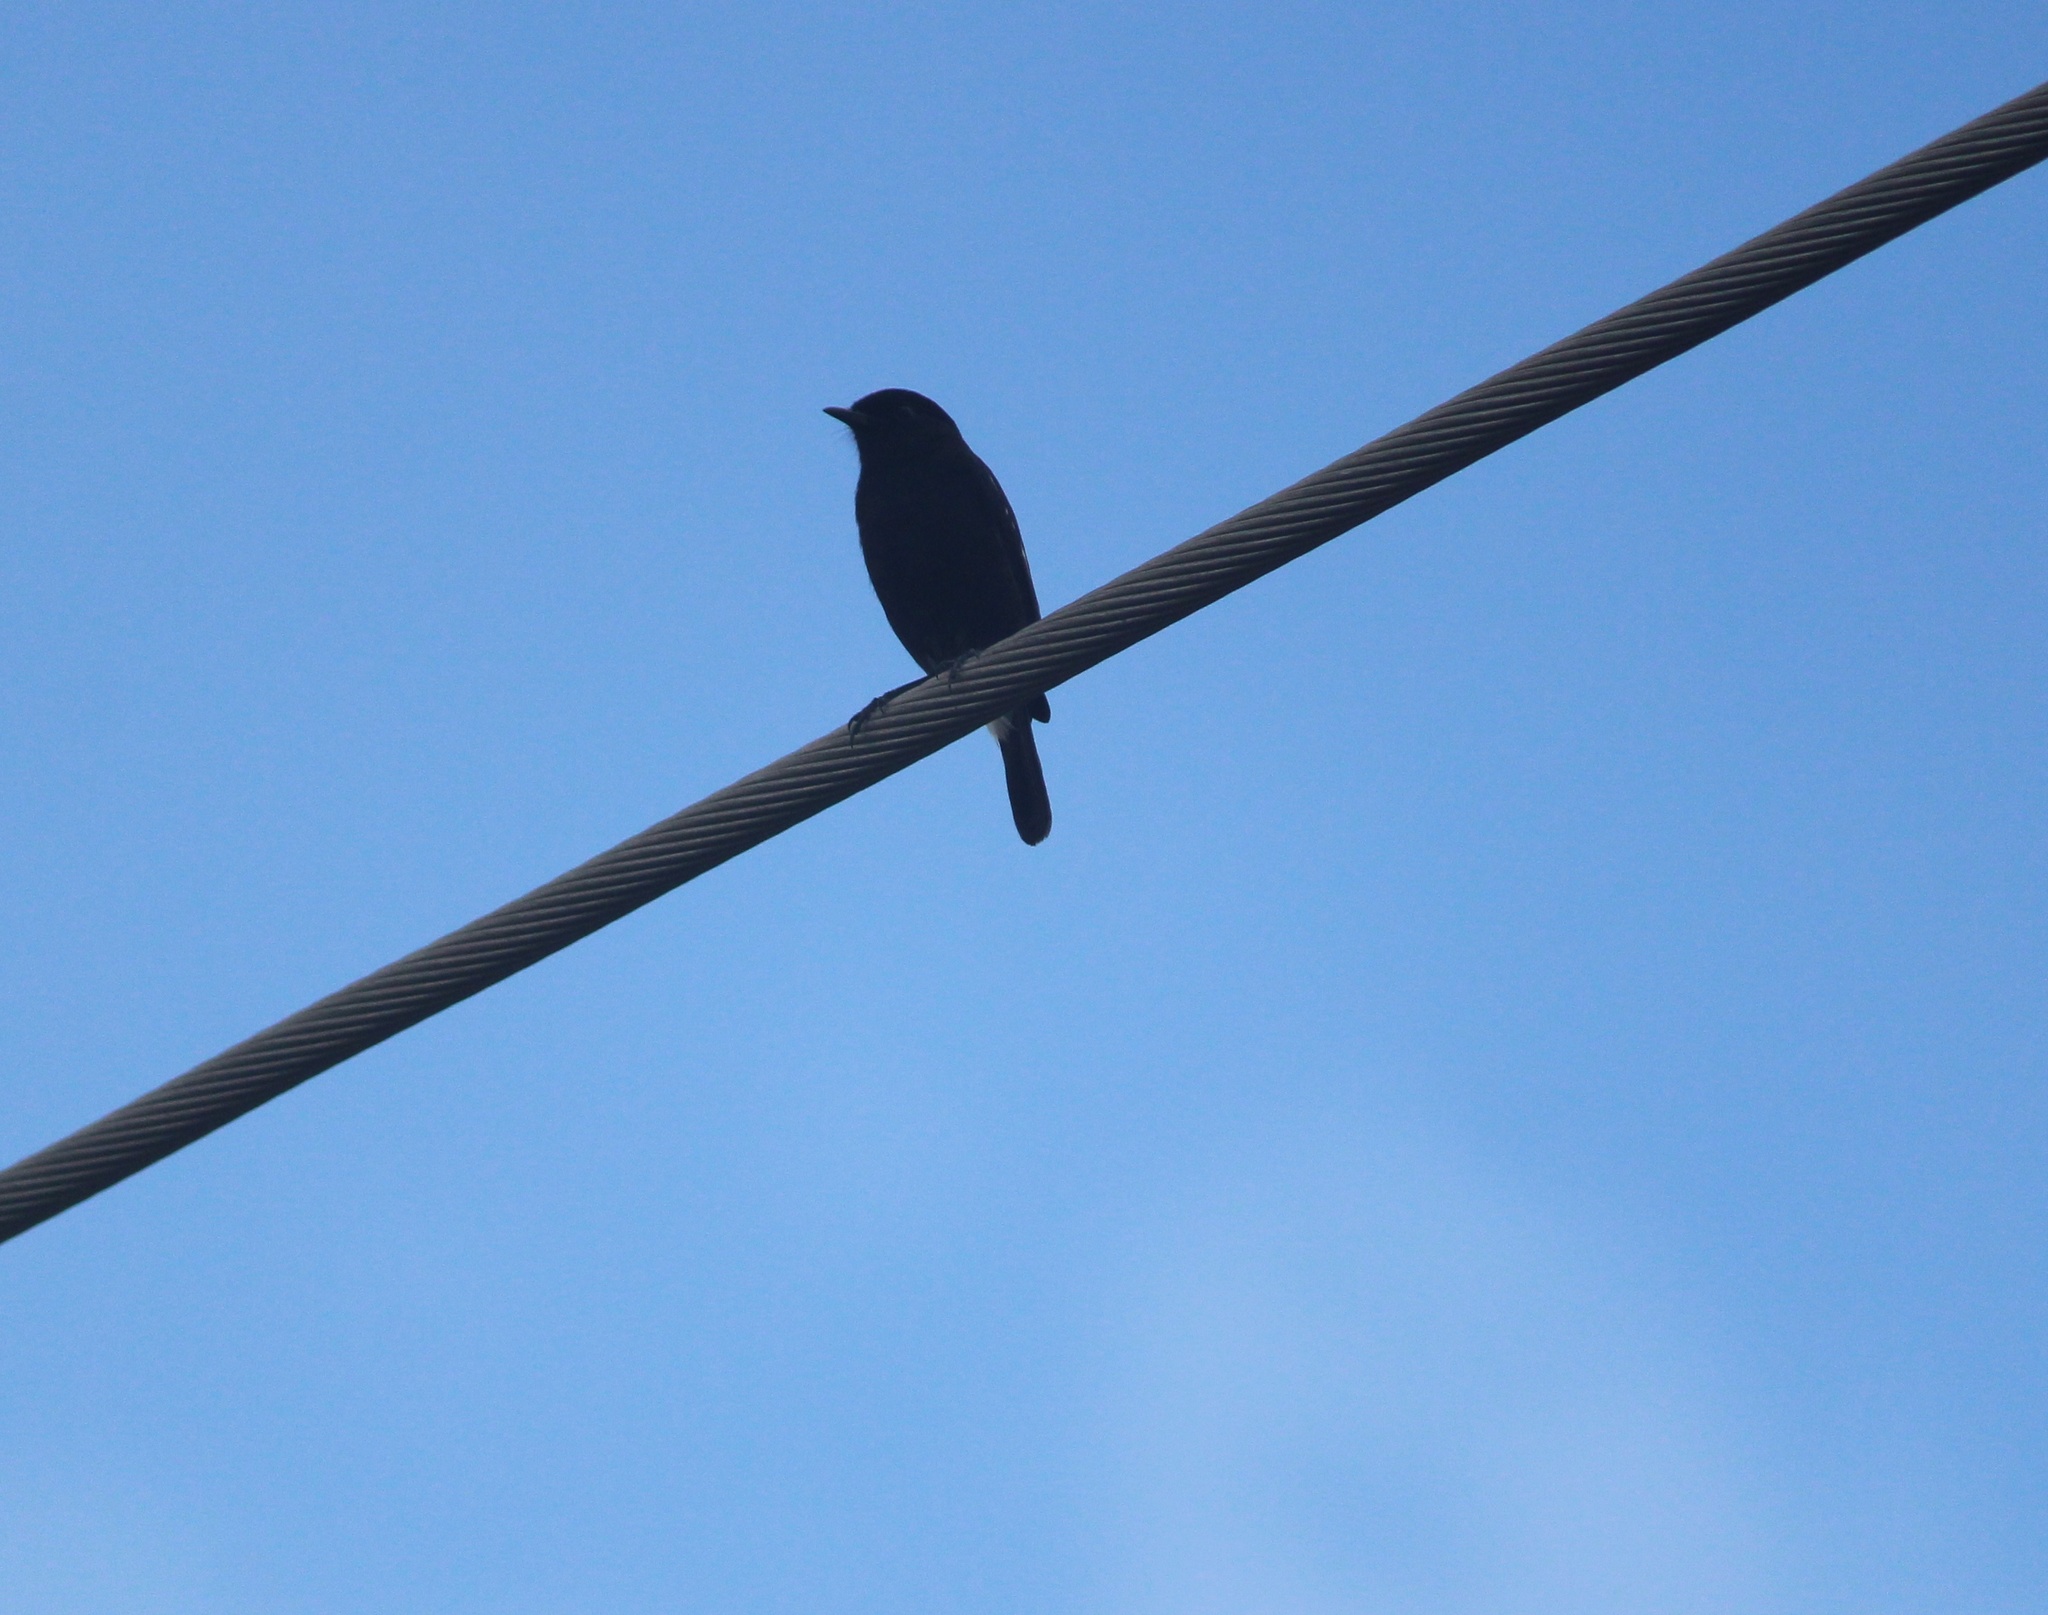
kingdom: Animalia
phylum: Chordata
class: Aves
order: Passeriformes
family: Muscicapidae
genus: Saxicola
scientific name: Saxicola caprata
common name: Pied bush chat
